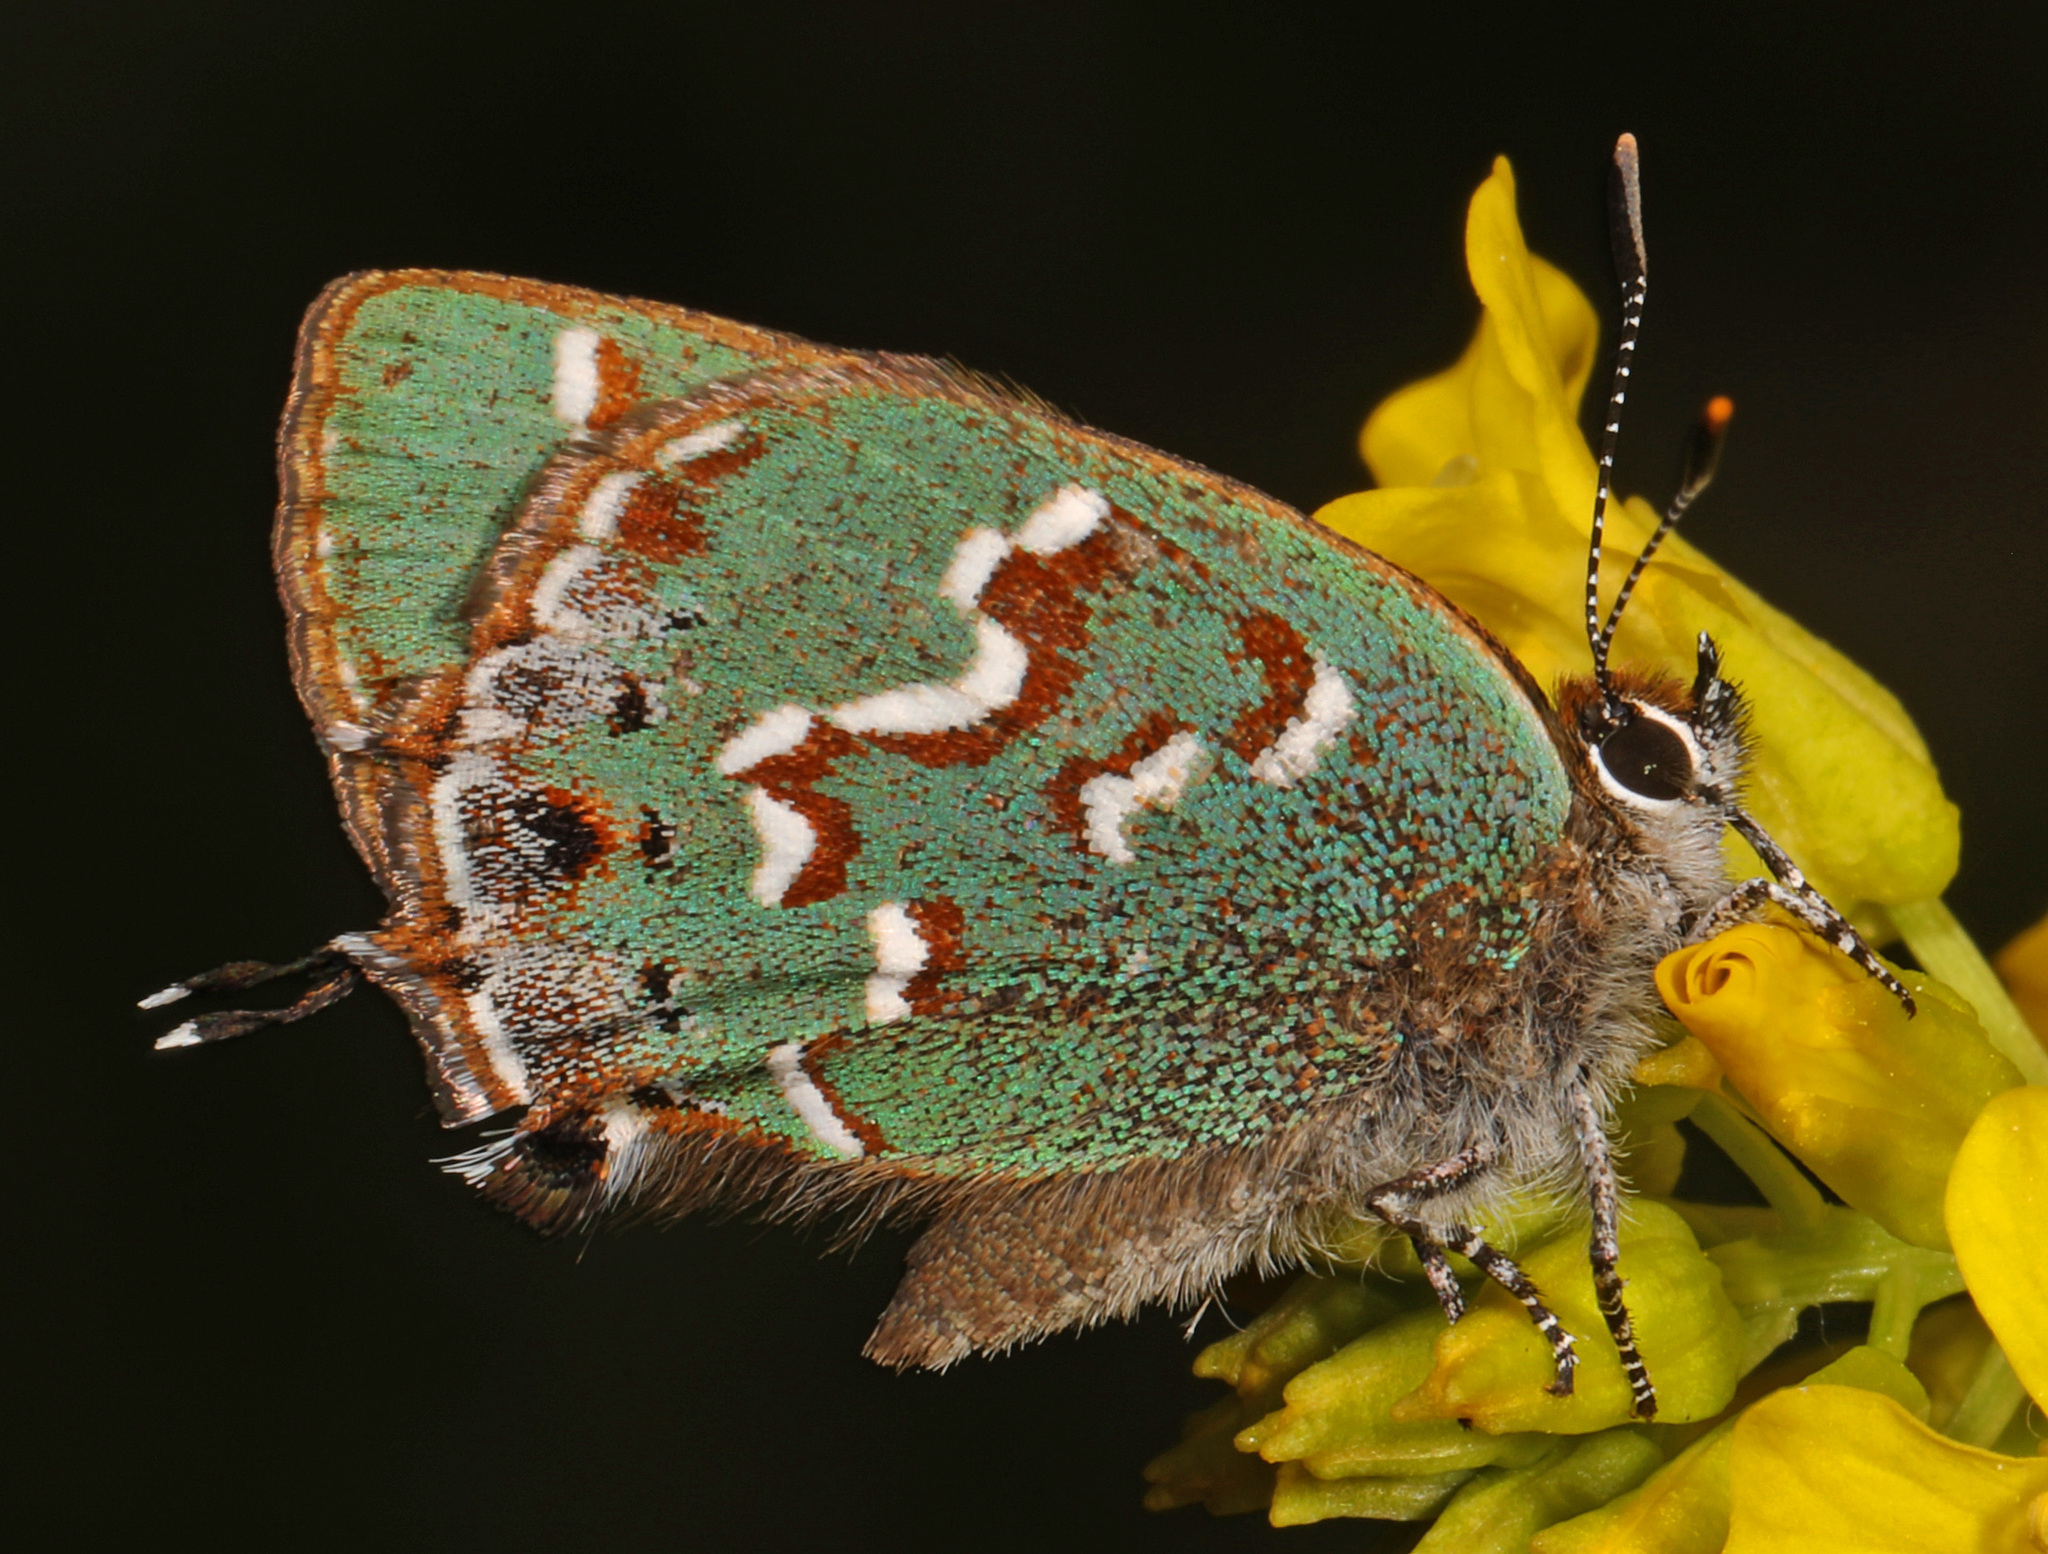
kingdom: Animalia
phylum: Arthropoda
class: Insecta
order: Lepidoptera
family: Lycaenidae
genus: Mitoura
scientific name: Mitoura gryneus
